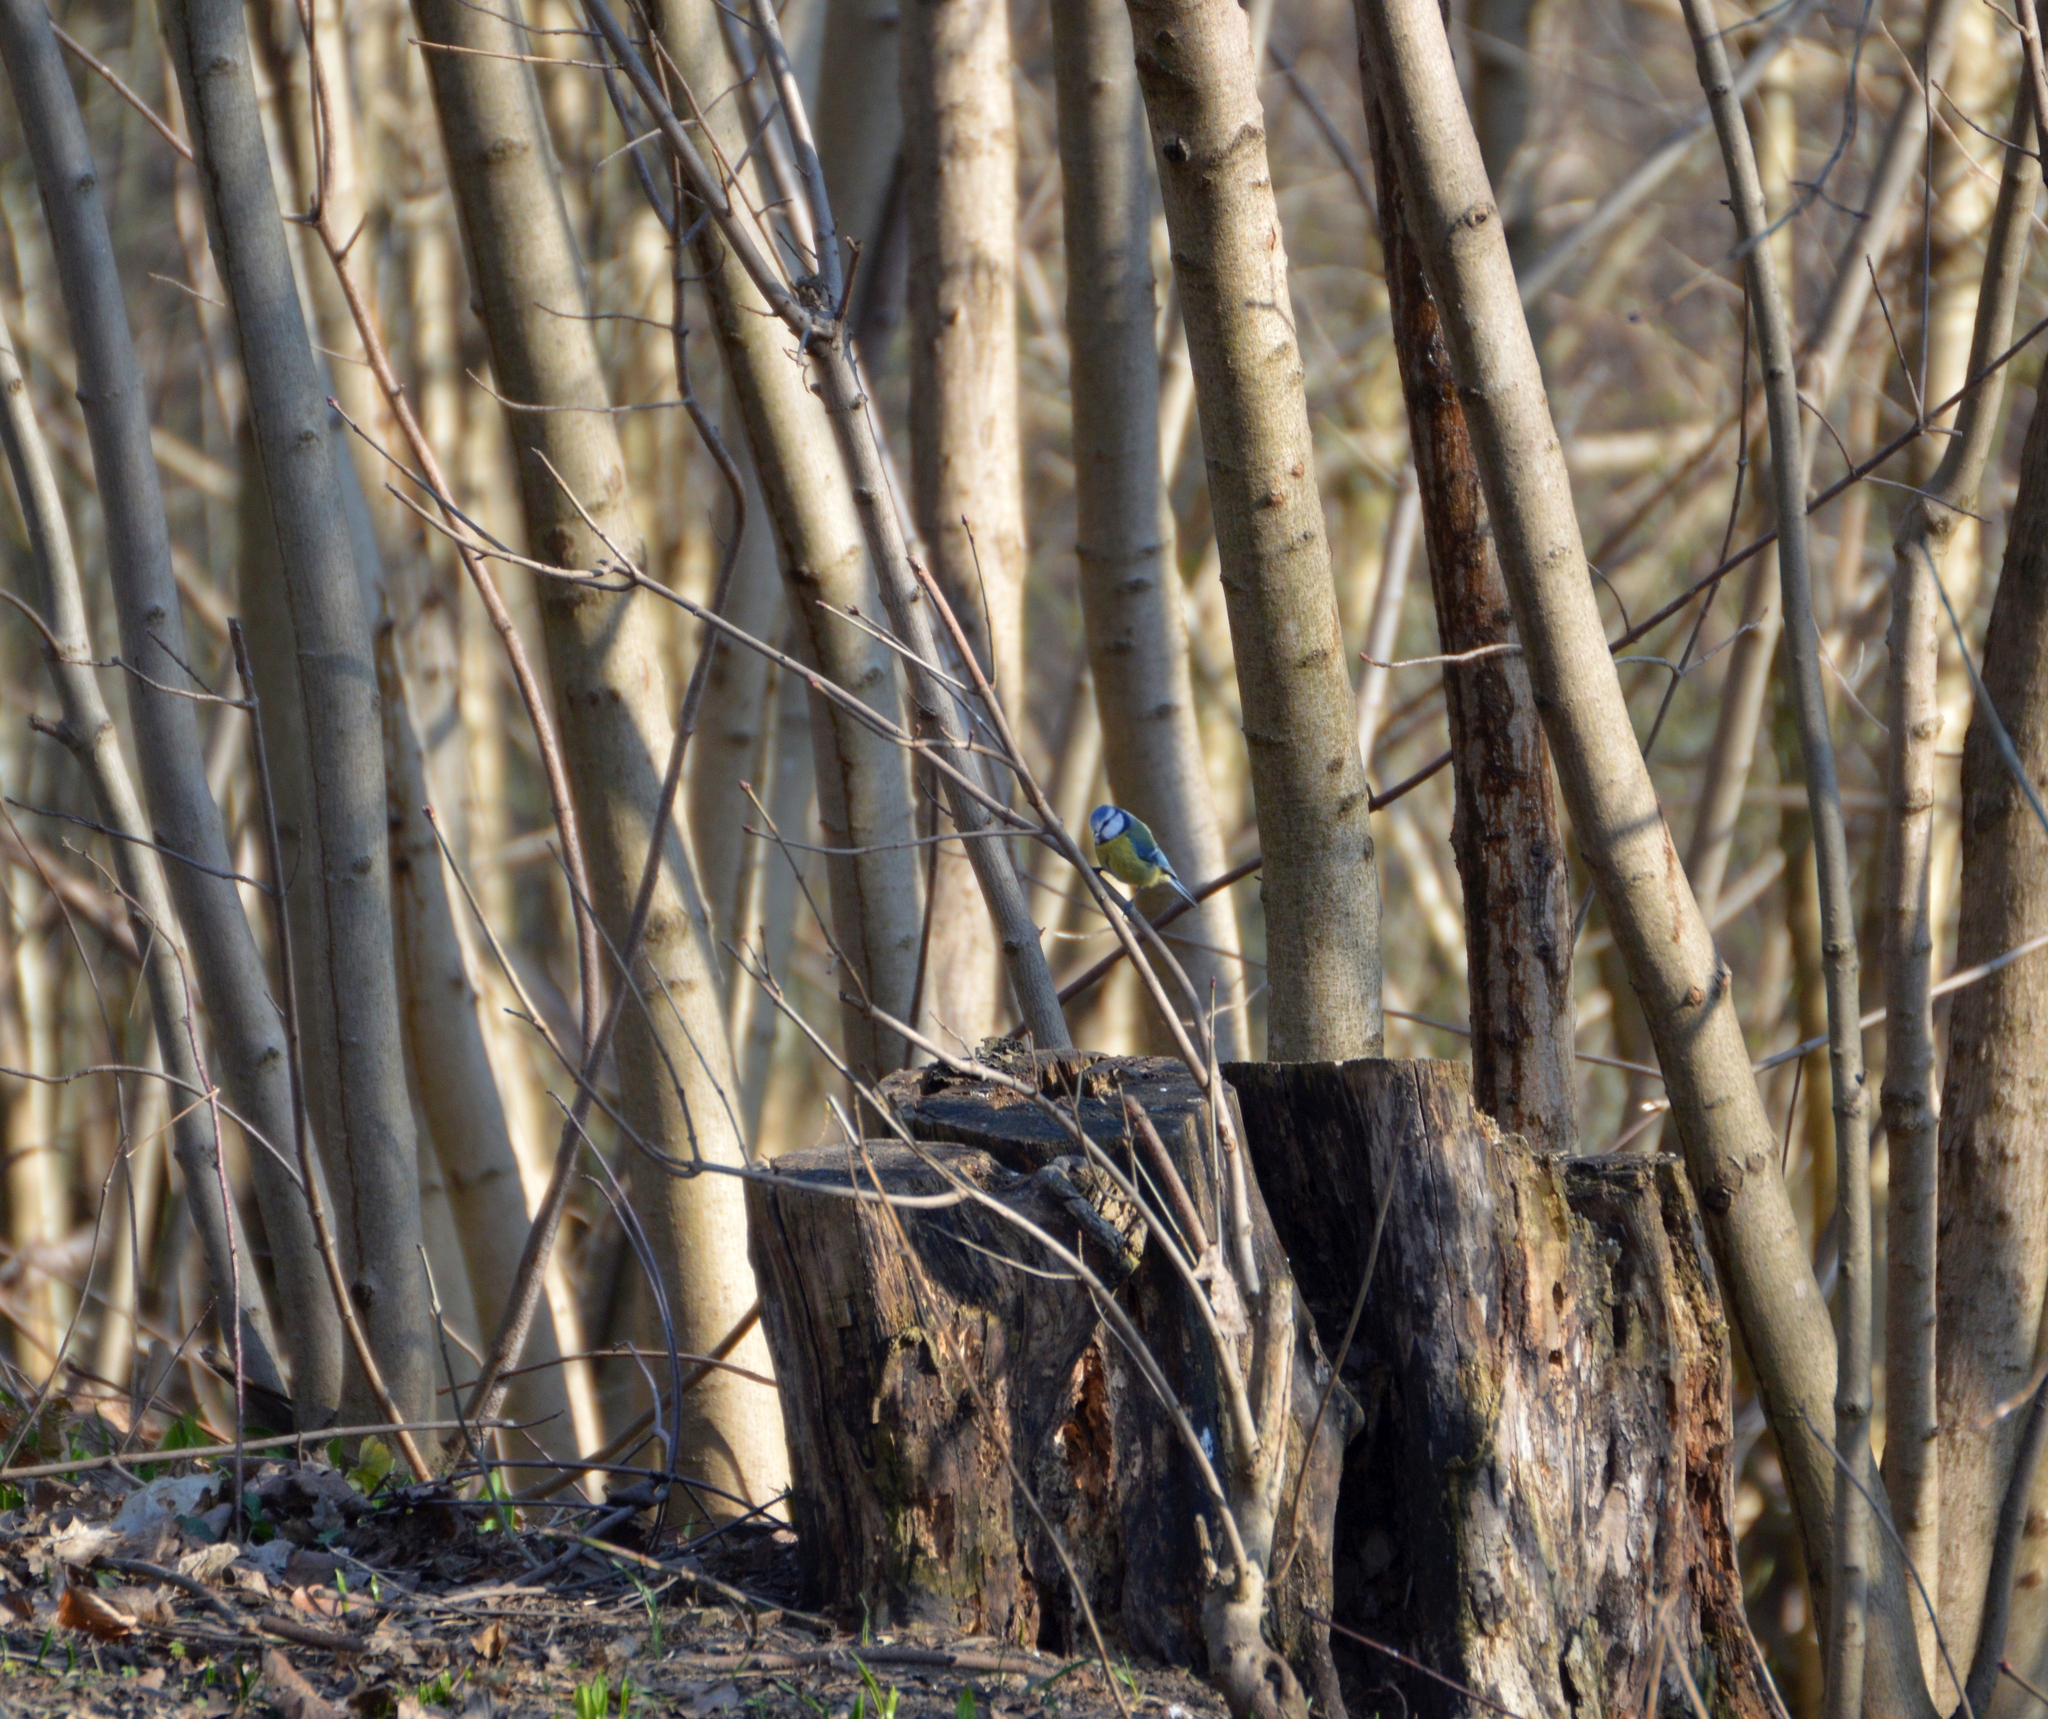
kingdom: Animalia
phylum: Chordata
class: Aves
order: Passeriformes
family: Paridae
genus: Cyanistes
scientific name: Cyanistes caeruleus
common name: Eurasian blue tit
